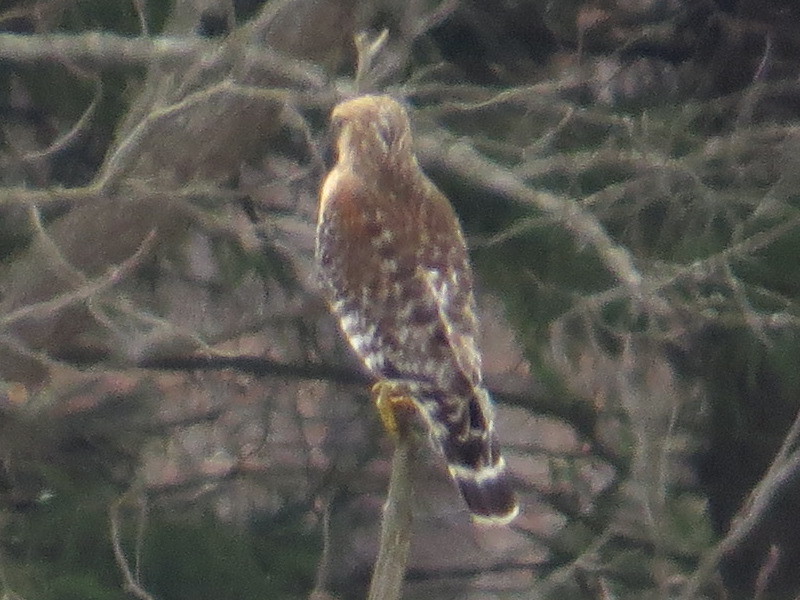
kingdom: Animalia
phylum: Chordata
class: Aves
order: Accipitriformes
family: Accipitridae
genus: Buteo
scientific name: Buteo lineatus
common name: Red-shouldered hawk
